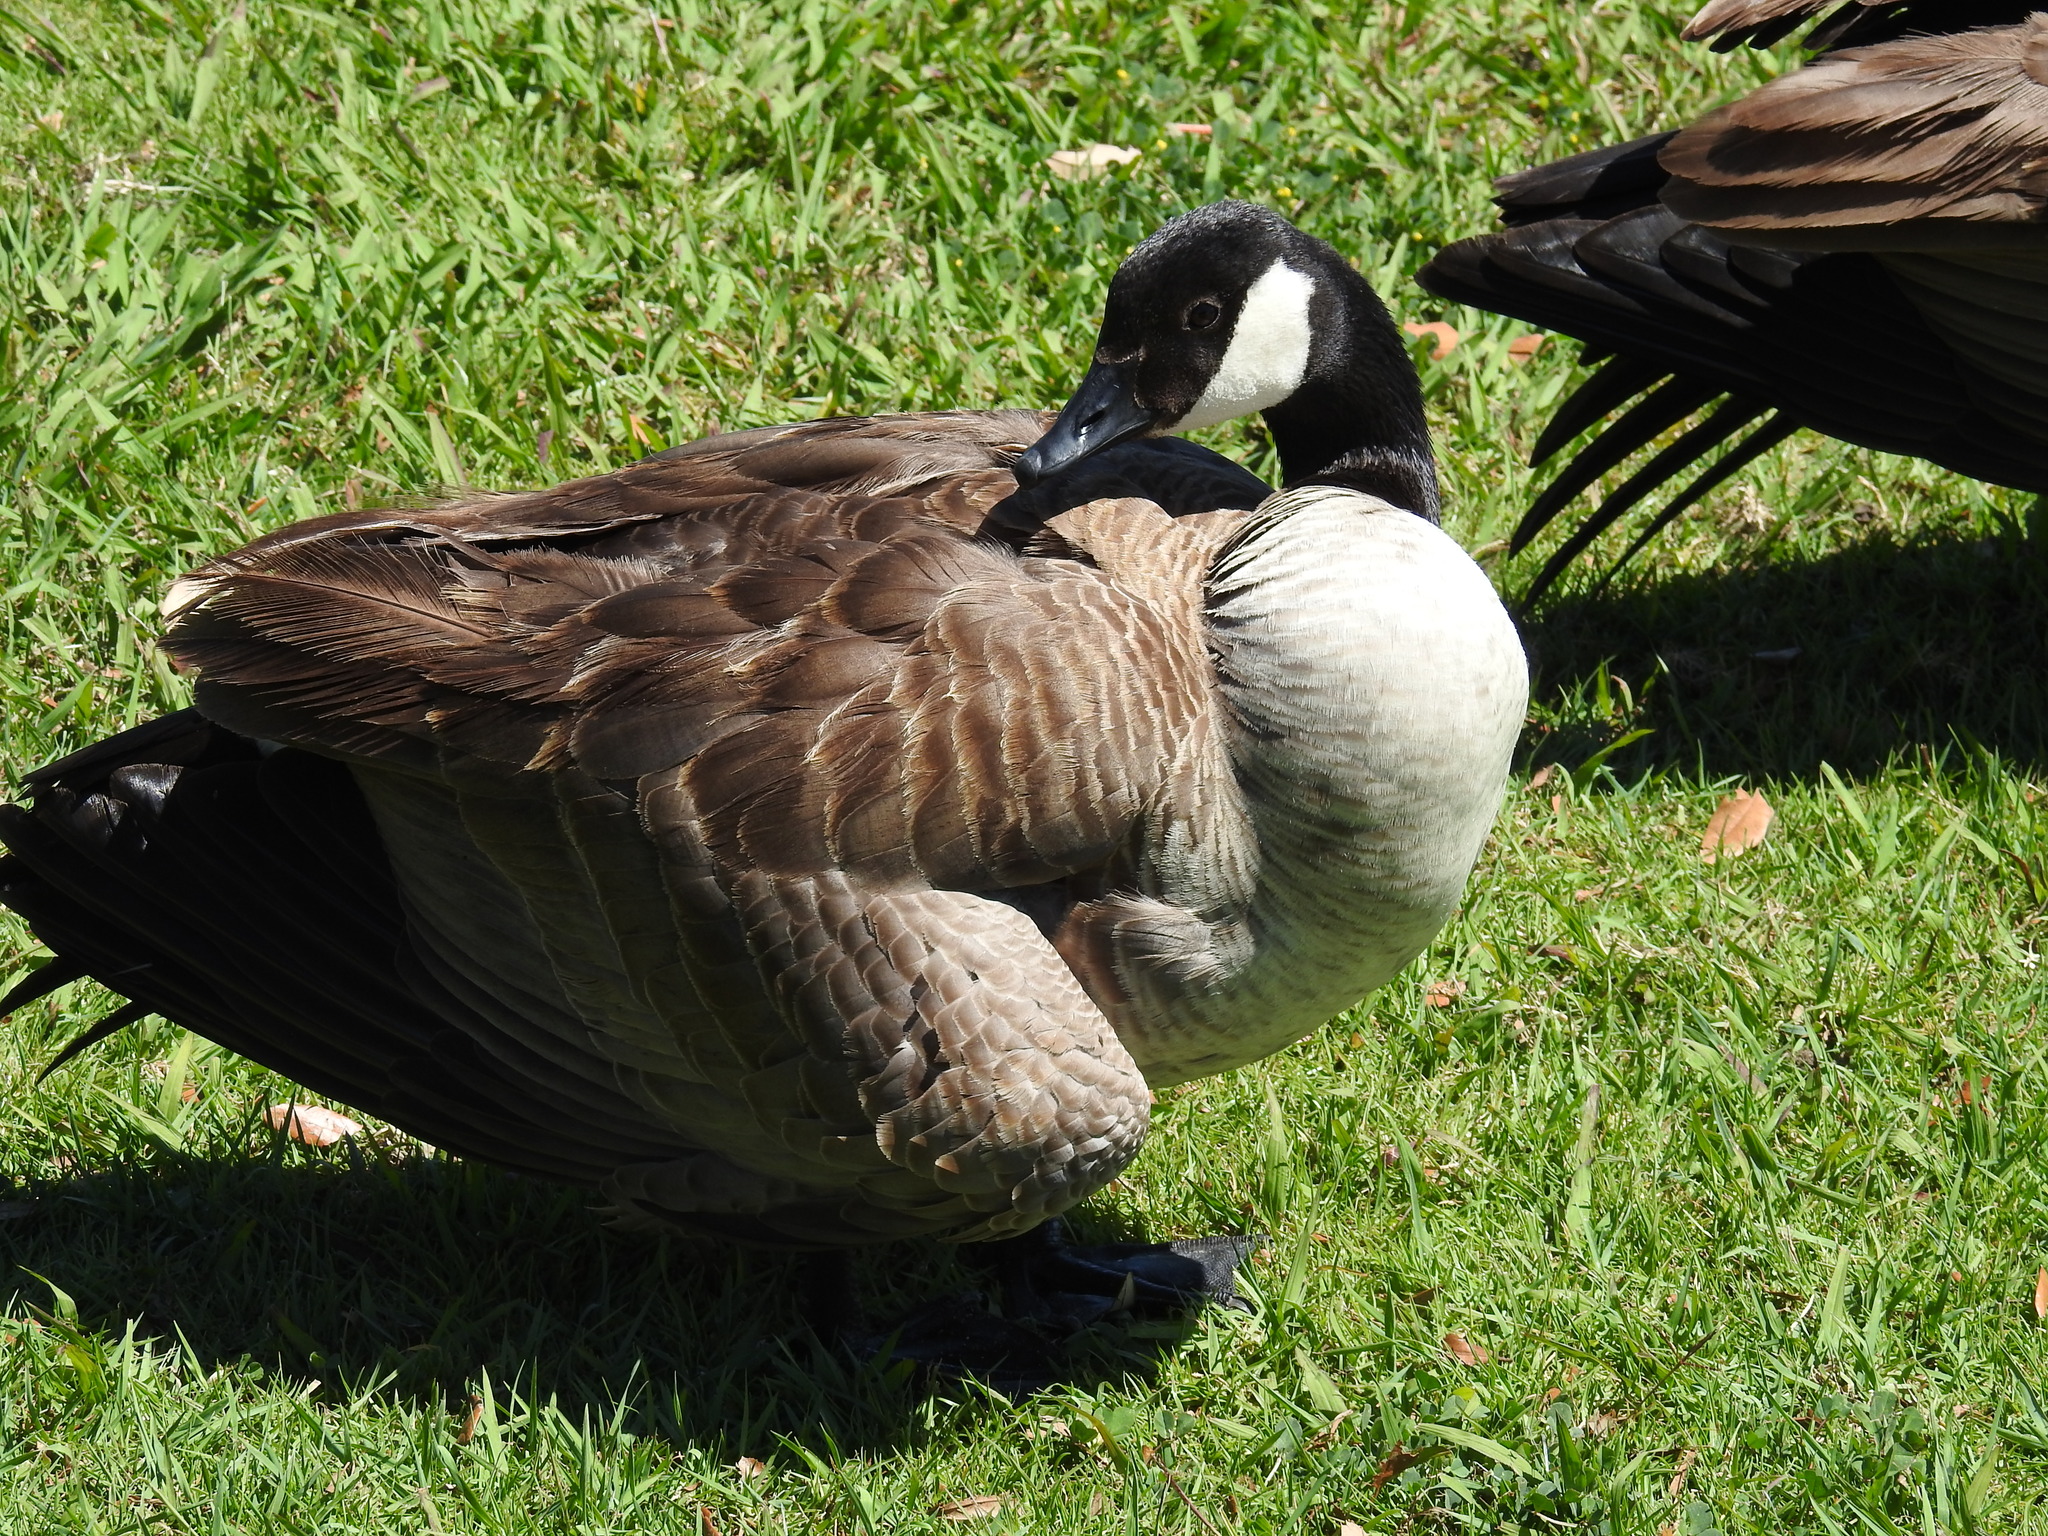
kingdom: Animalia
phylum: Chordata
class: Aves
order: Anseriformes
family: Anatidae
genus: Branta
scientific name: Branta canadensis
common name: Canada goose
